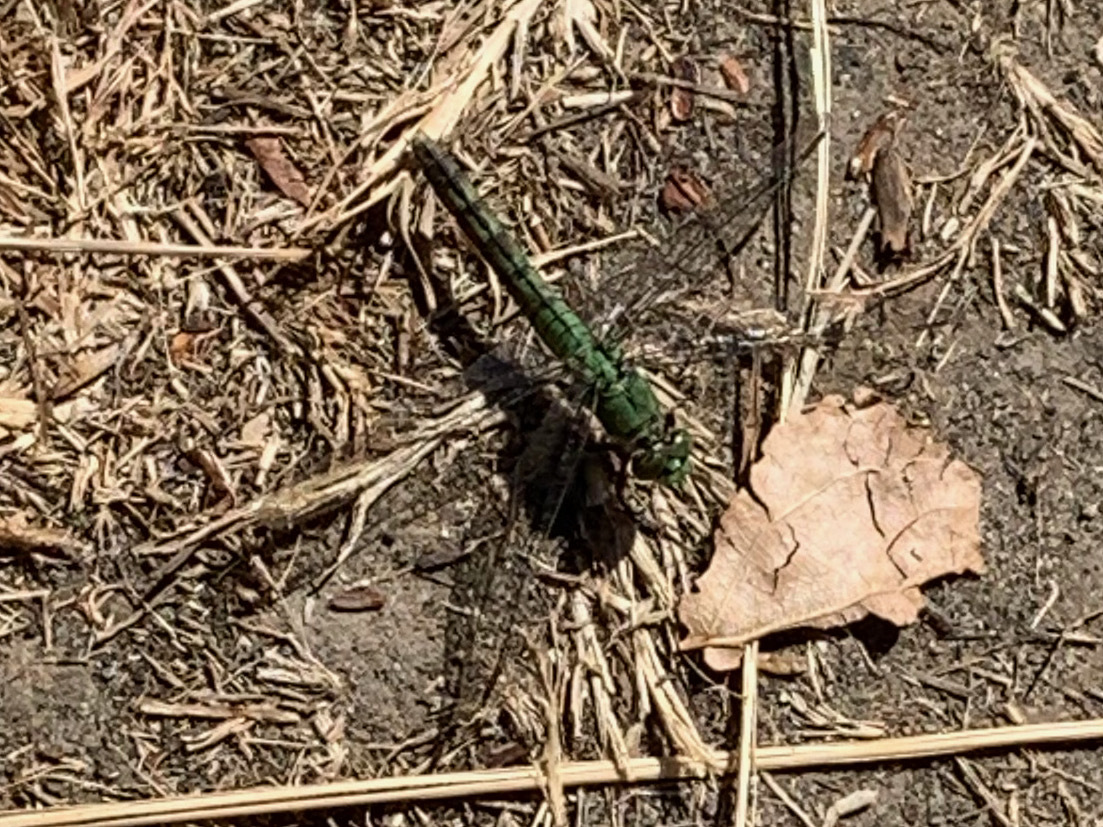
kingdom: Animalia
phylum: Arthropoda
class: Insecta
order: Odonata
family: Libellulidae
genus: Erythemis
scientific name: Erythemis collocata
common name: Western pondhawk
